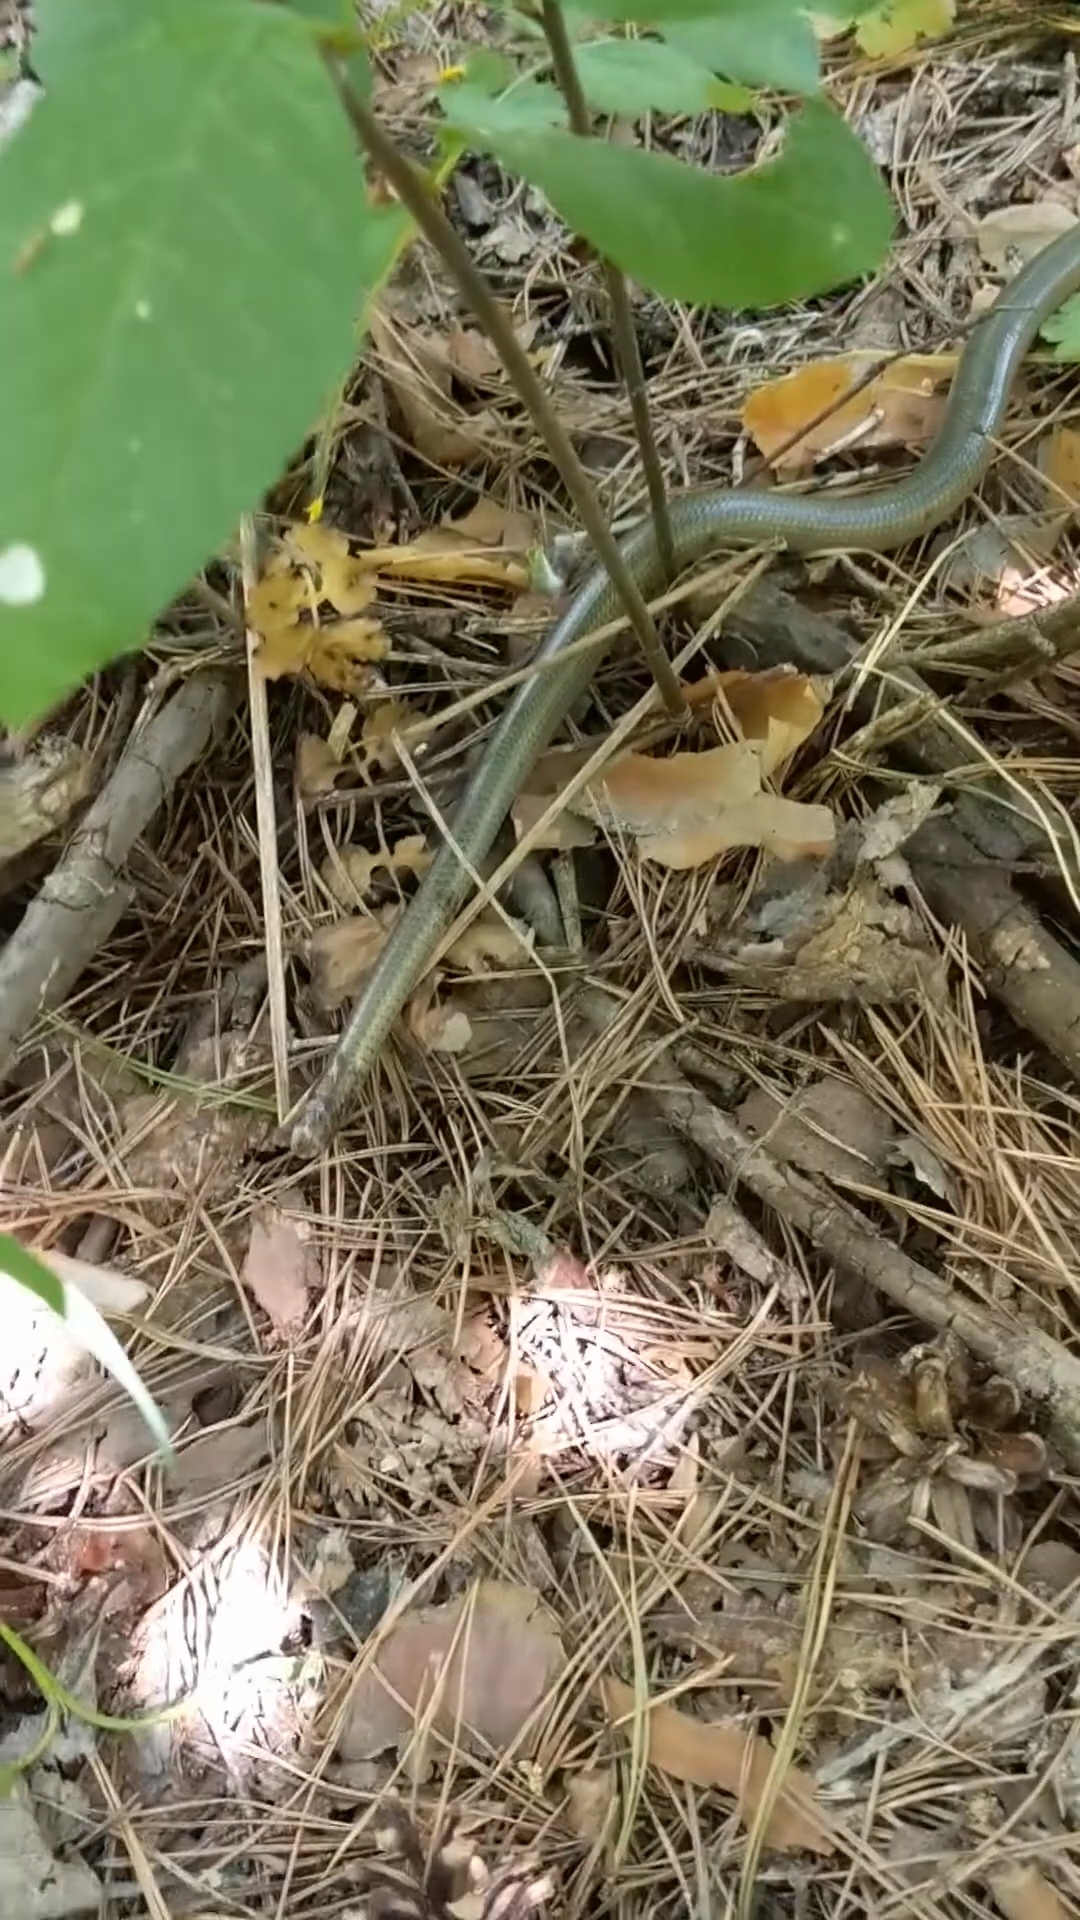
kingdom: Animalia
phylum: Chordata
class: Squamata
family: Anguidae
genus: Anguis
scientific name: Anguis colchica
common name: Slow worm
